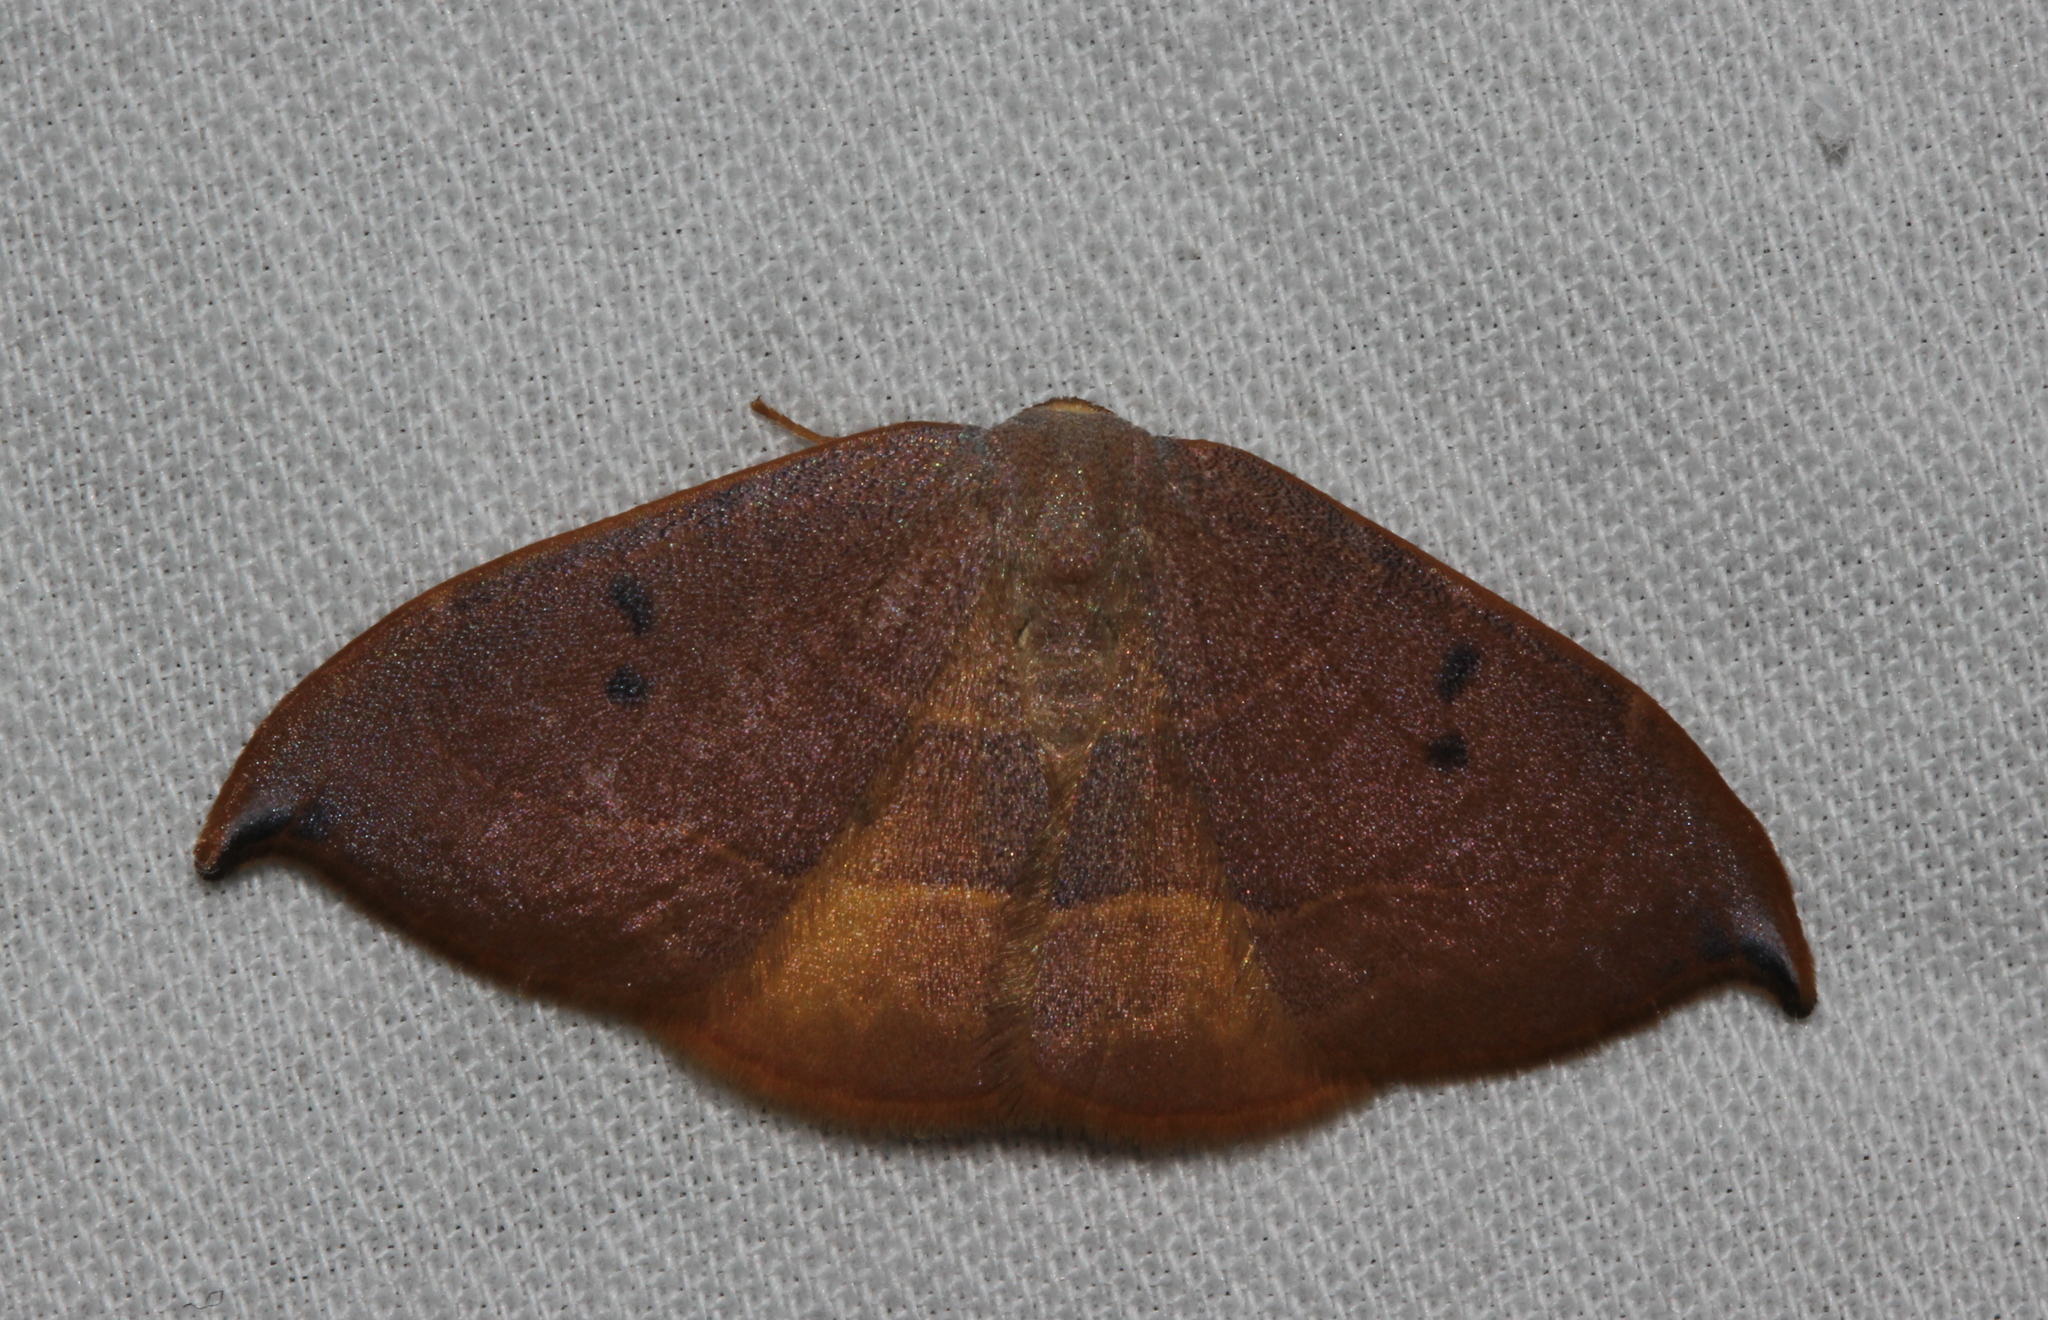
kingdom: Animalia
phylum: Arthropoda
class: Insecta
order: Lepidoptera
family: Drepanidae
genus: Watsonalla
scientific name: Watsonalla uncinula
